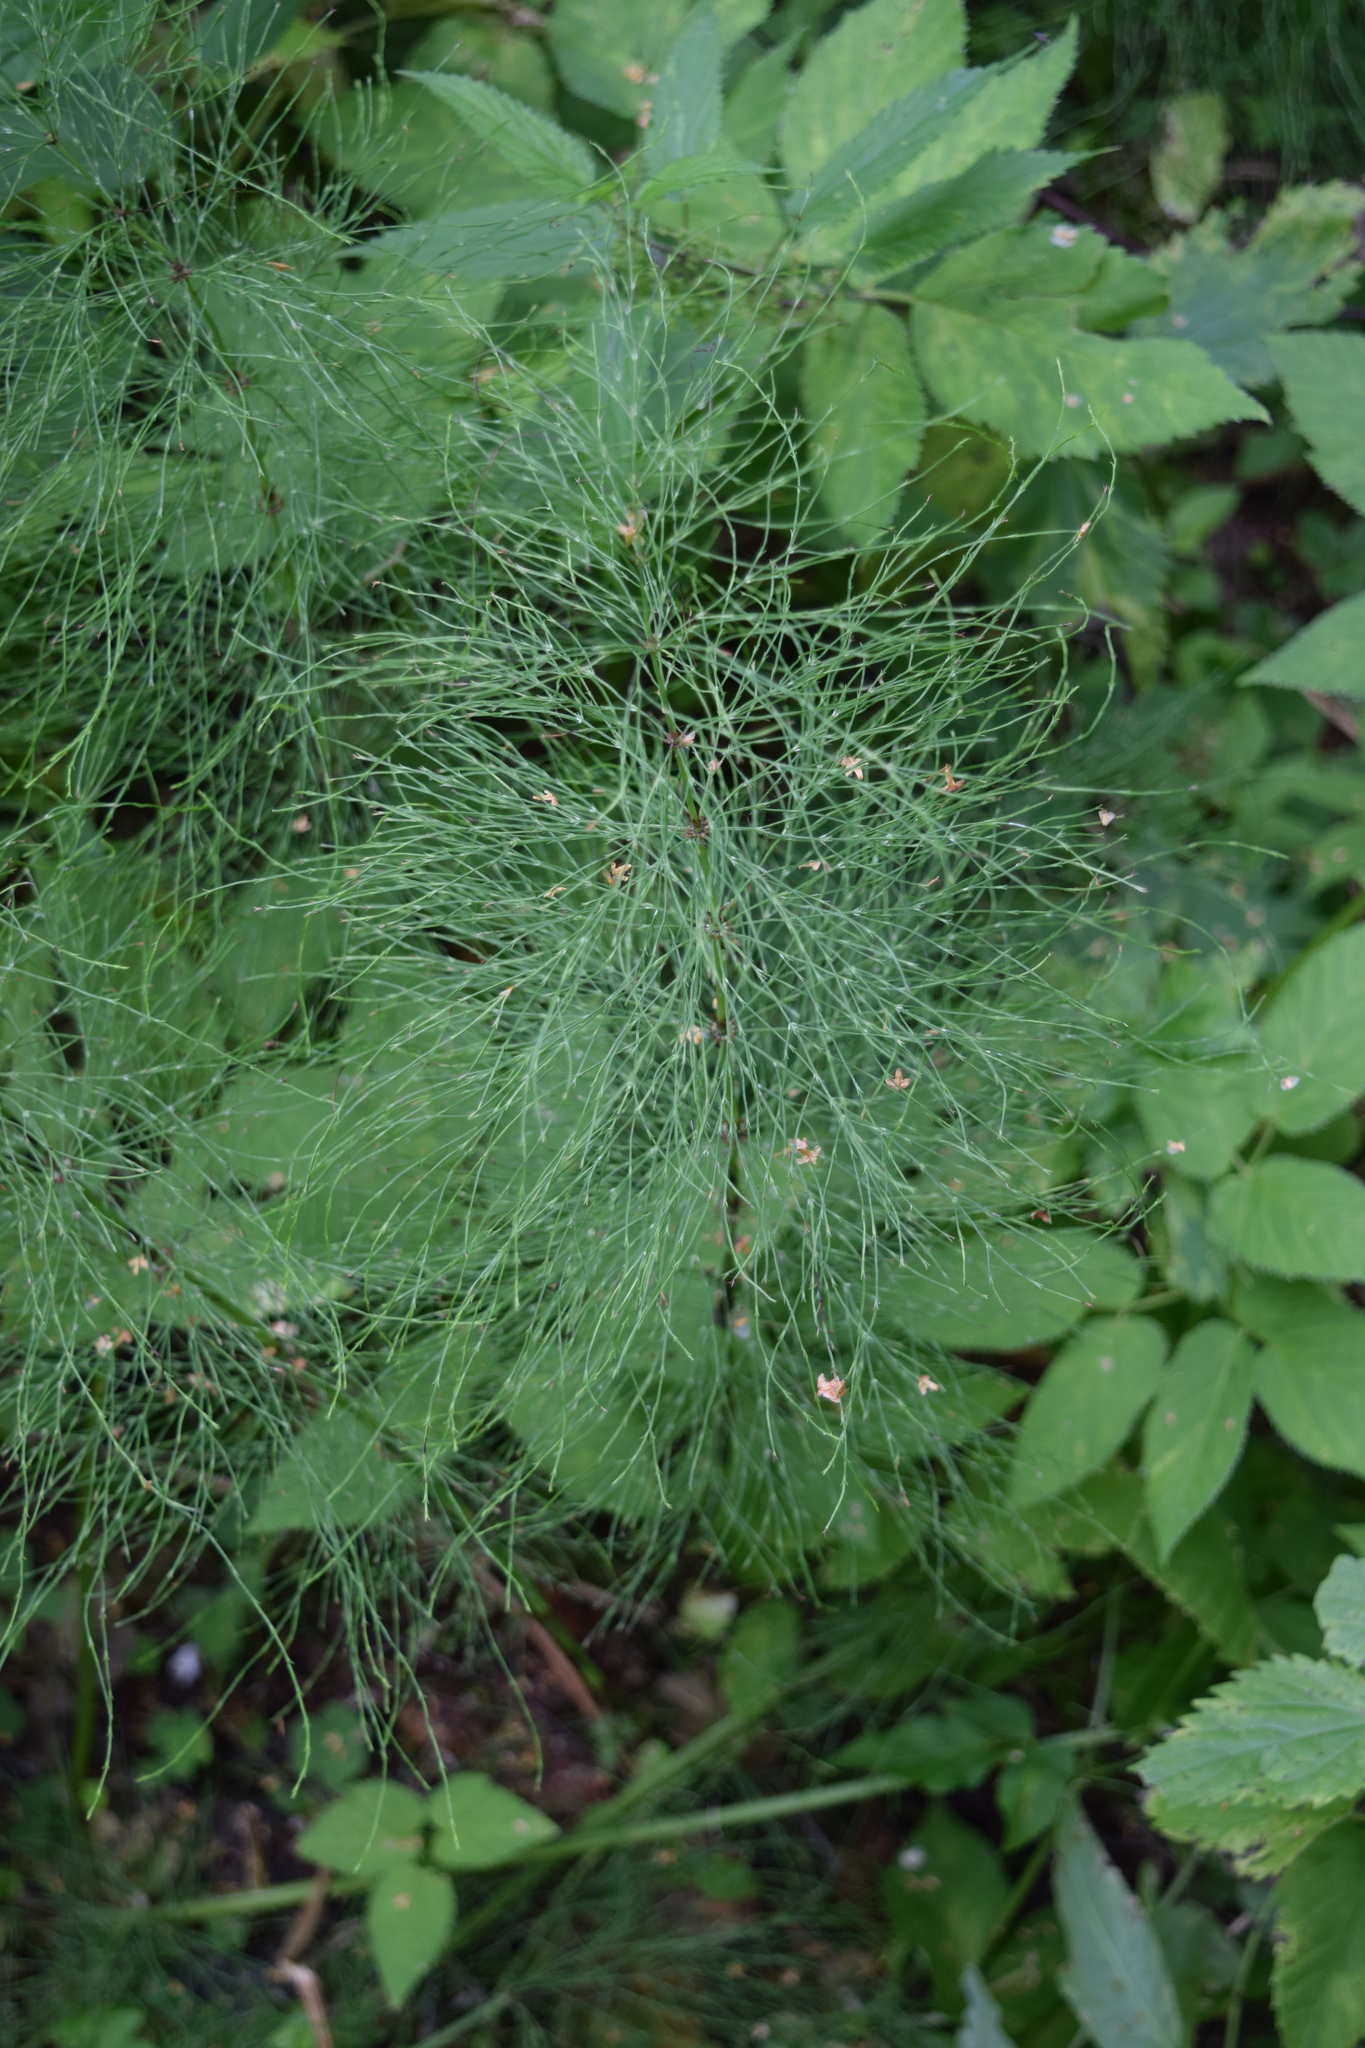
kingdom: Plantae
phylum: Tracheophyta
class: Polypodiopsida
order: Equisetales
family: Equisetaceae
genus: Equisetum
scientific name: Equisetum sylvaticum
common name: Wood horsetail
